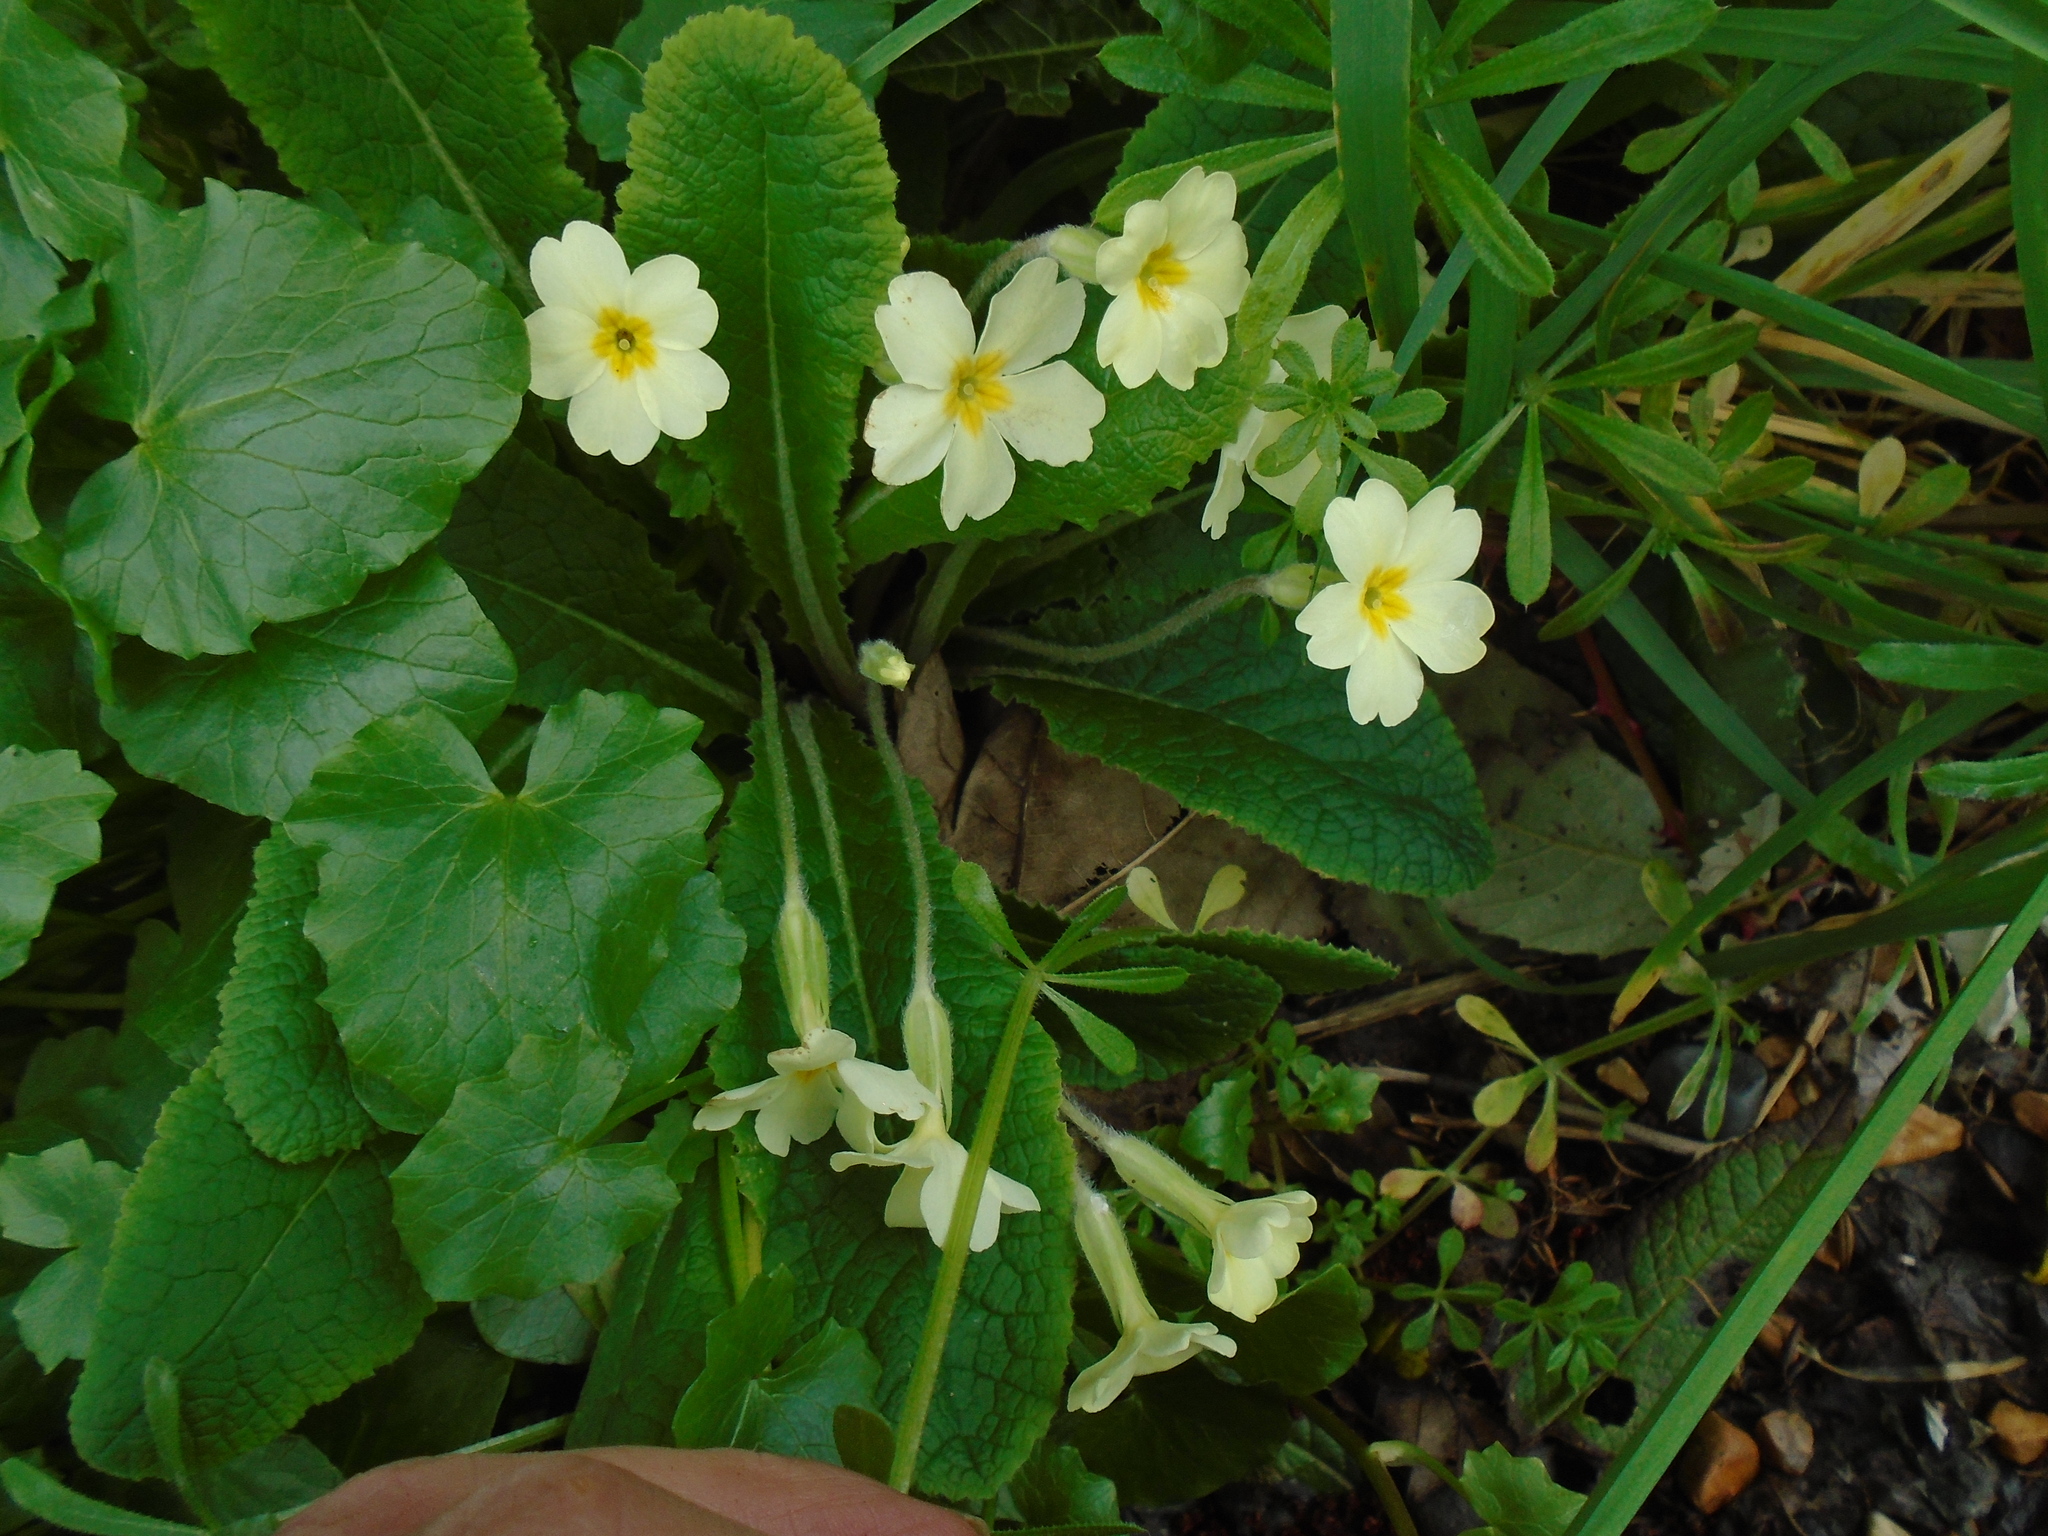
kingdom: Plantae
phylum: Tracheophyta
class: Magnoliopsida
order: Ericales
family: Primulaceae
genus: Primula
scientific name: Primula vulgaris
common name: Primrose
